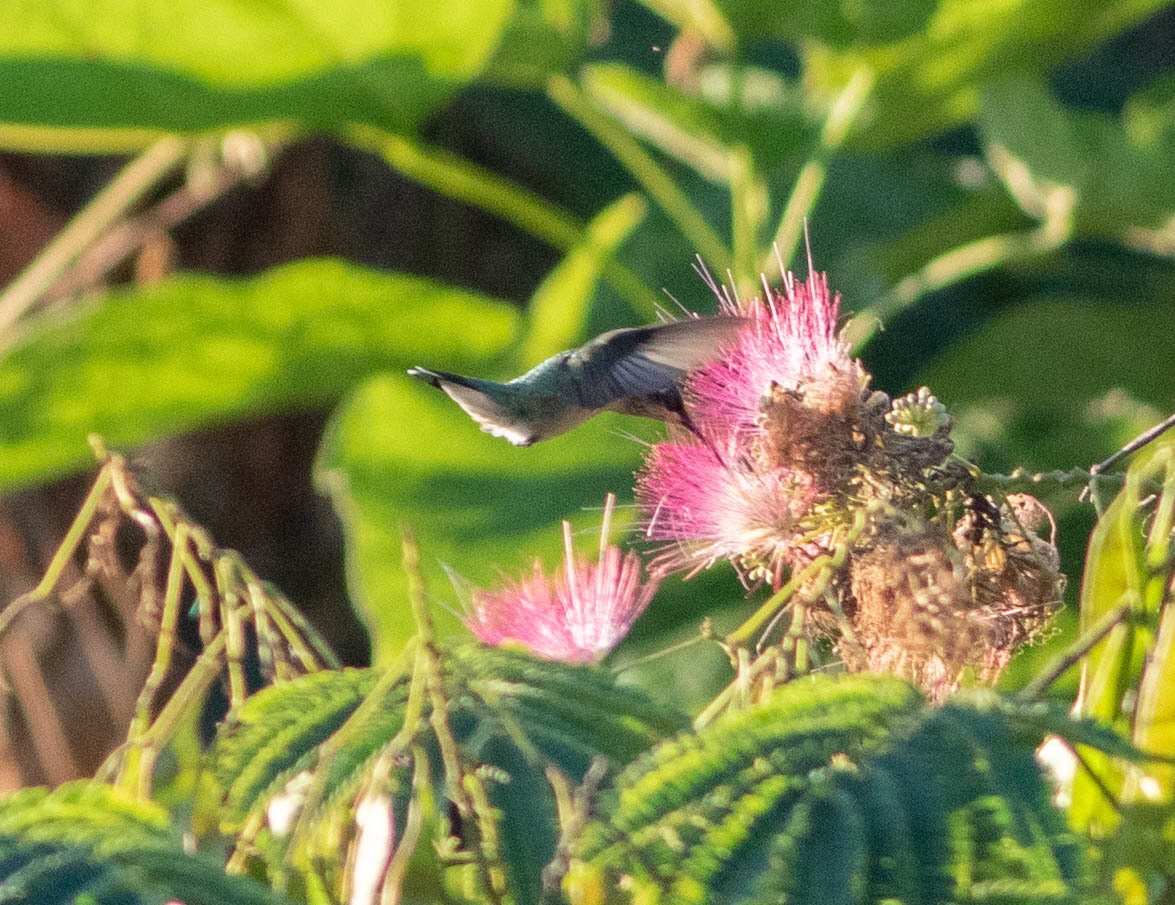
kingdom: Animalia
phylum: Chordata
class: Aves
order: Apodiformes
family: Trochilidae
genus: Archilochus
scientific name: Archilochus colubris
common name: Ruby-throated hummingbird
